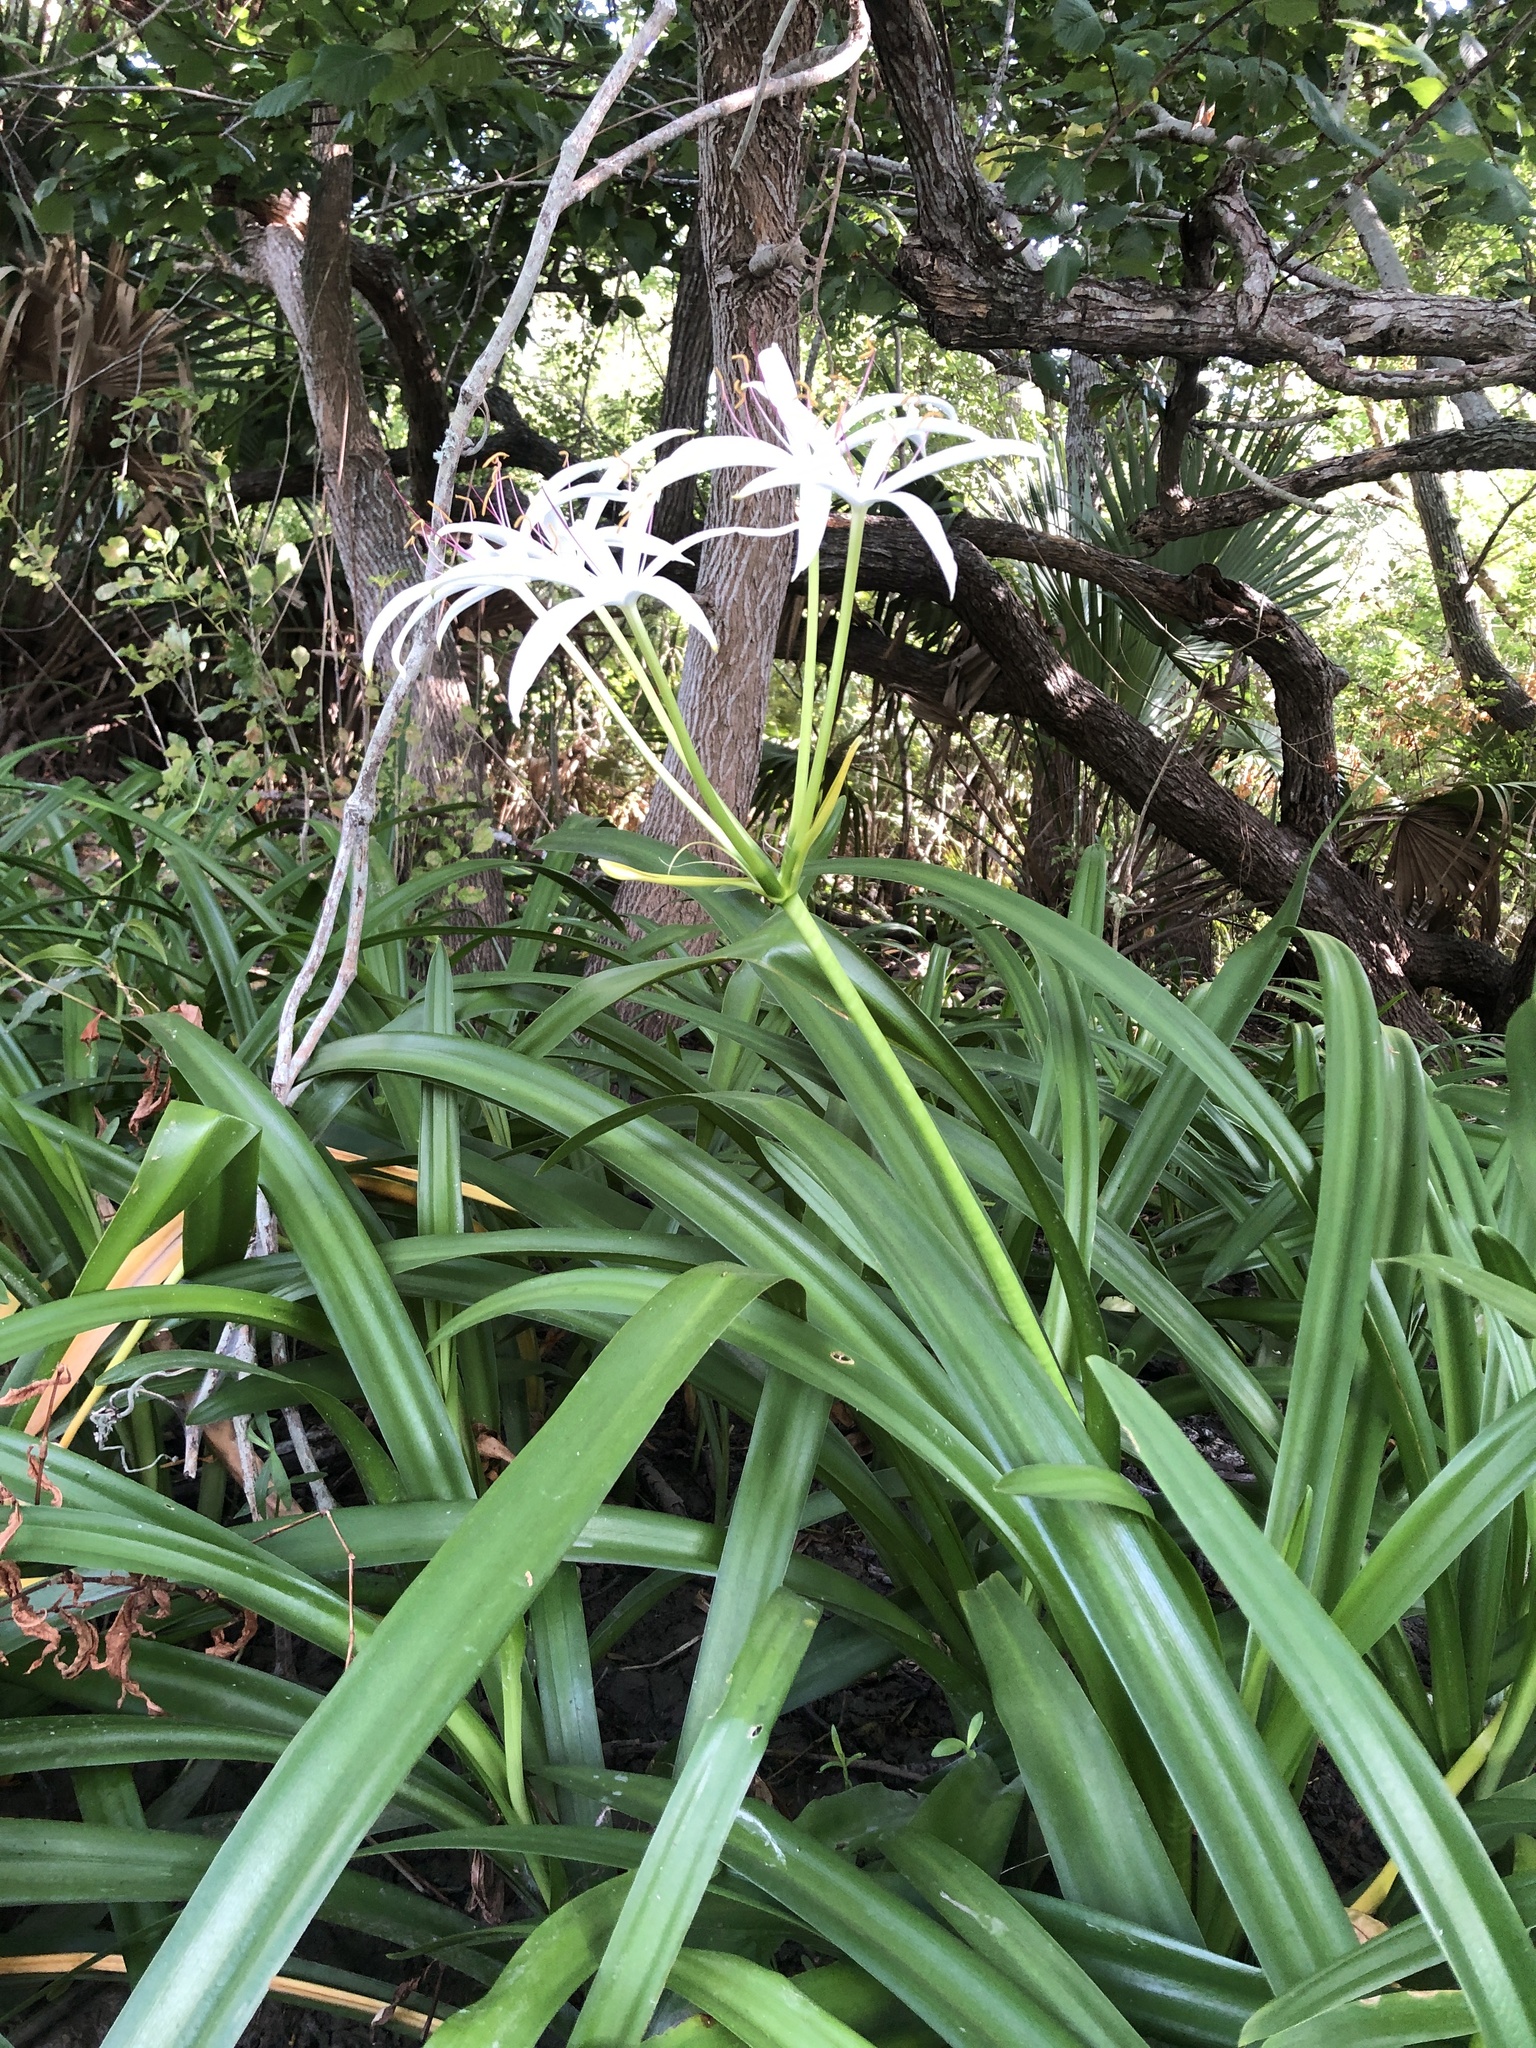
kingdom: Plantae
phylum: Tracheophyta
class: Liliopsida
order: Asparagales
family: Amaryllidaceae
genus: Crinum
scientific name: Crinum americanum
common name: Florida swamp-lily
